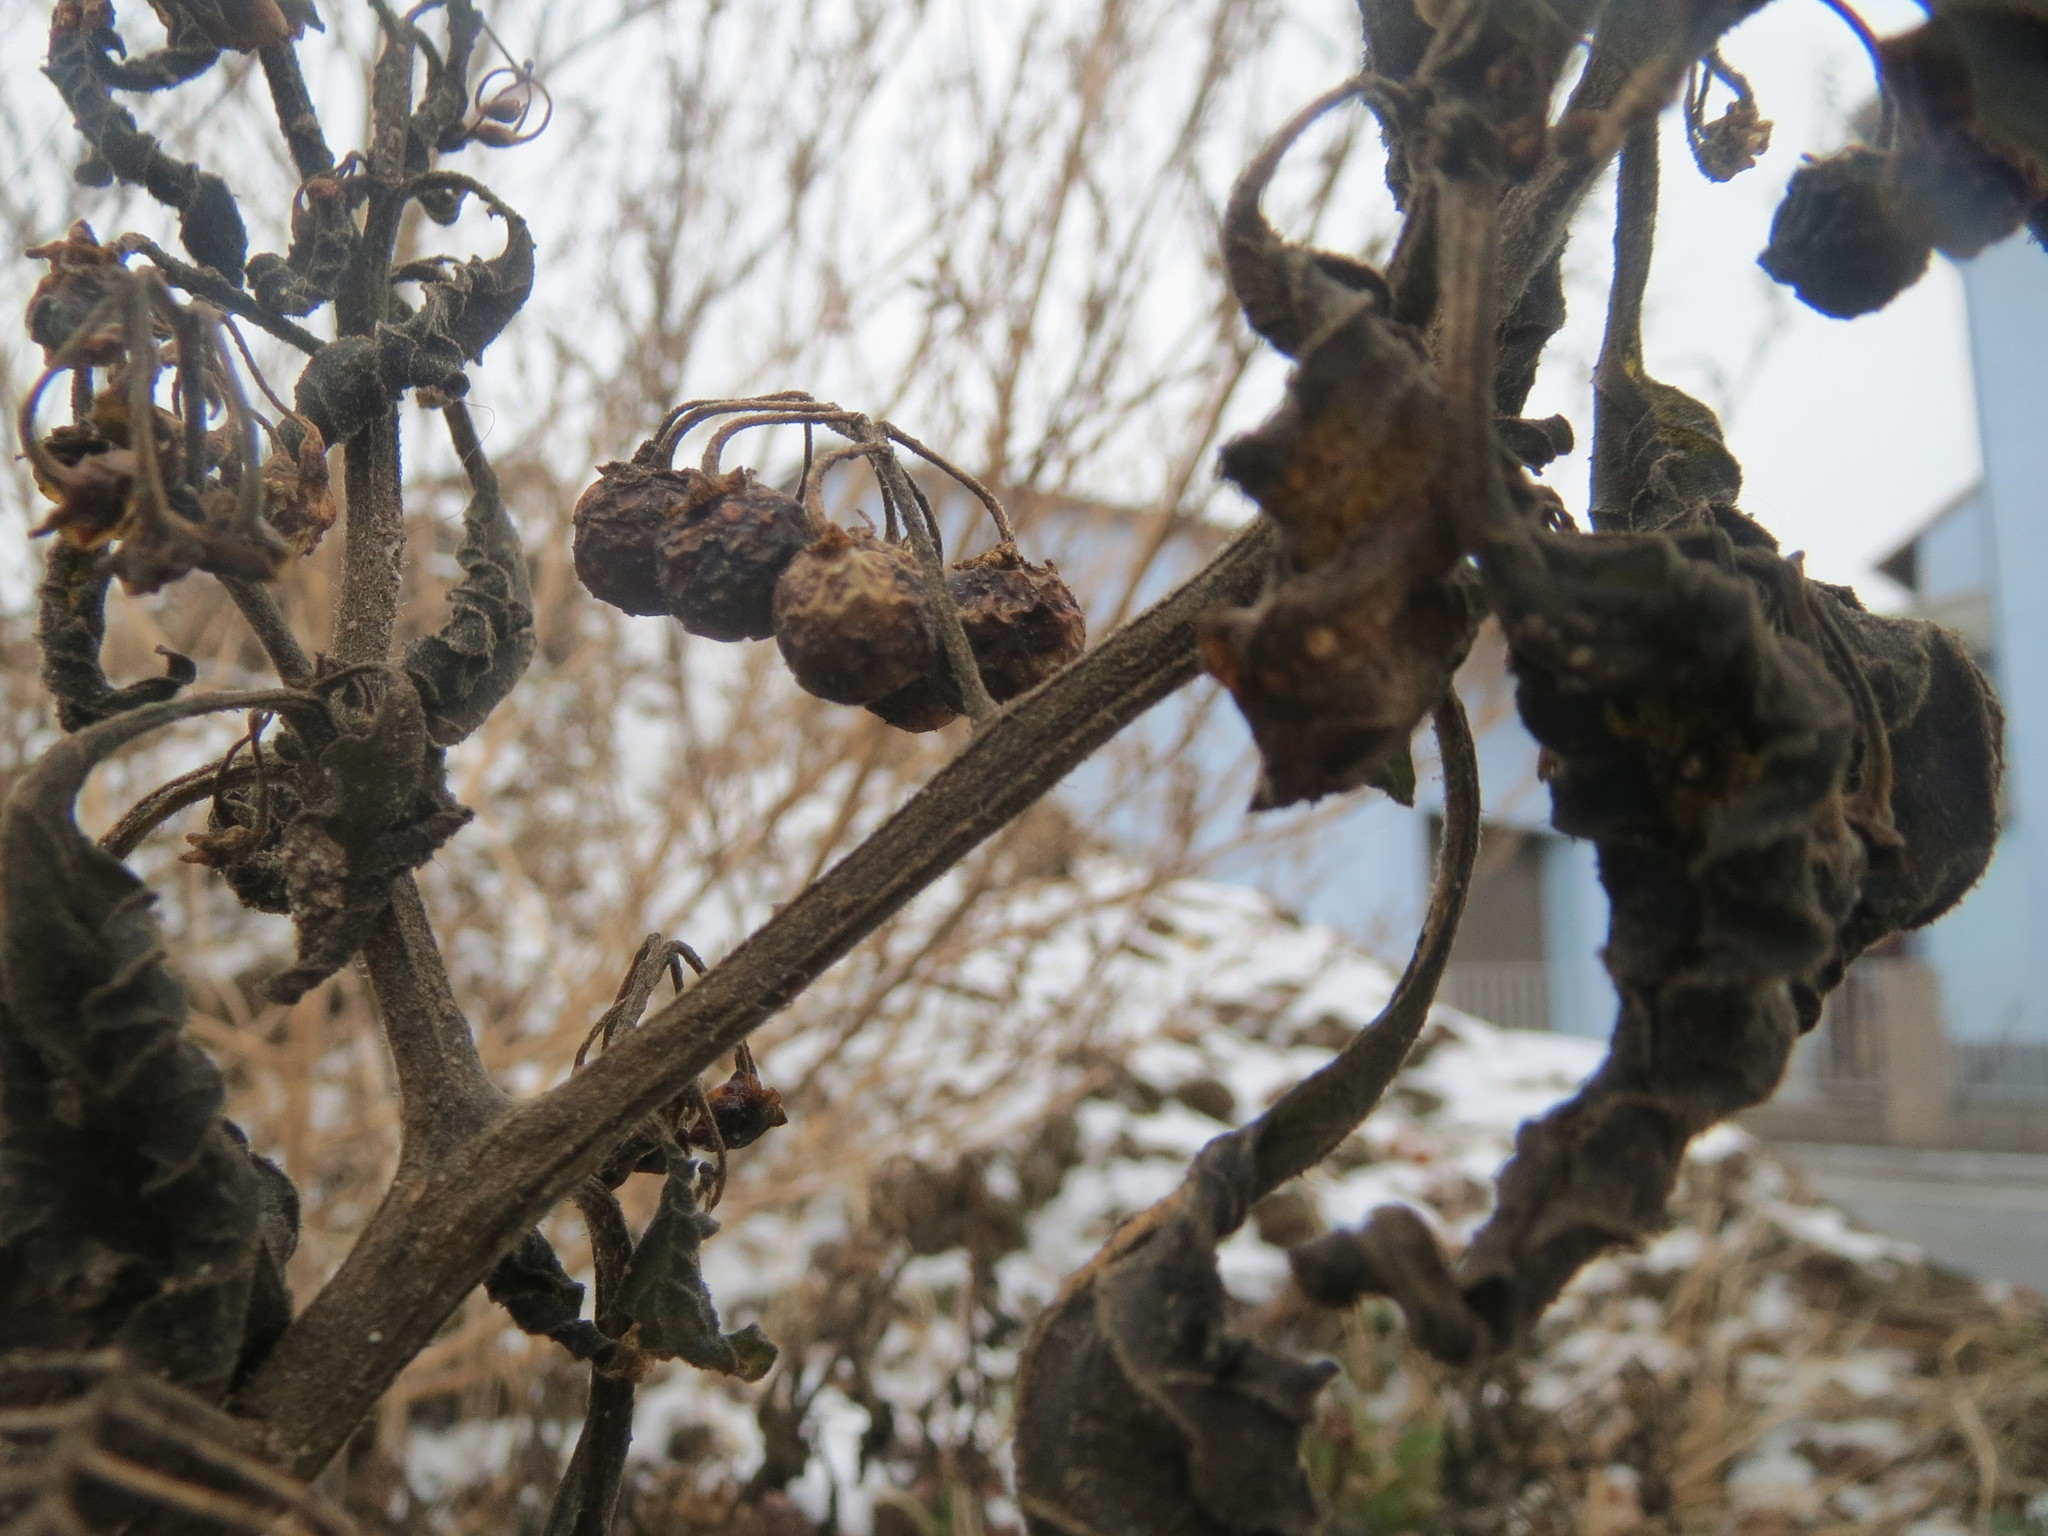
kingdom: Plantae
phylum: Tracheophyta
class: Magnoliopsida
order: Solanales
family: Solanaceae
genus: Solanum
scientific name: Solanum nigrum
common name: Black nightshade
